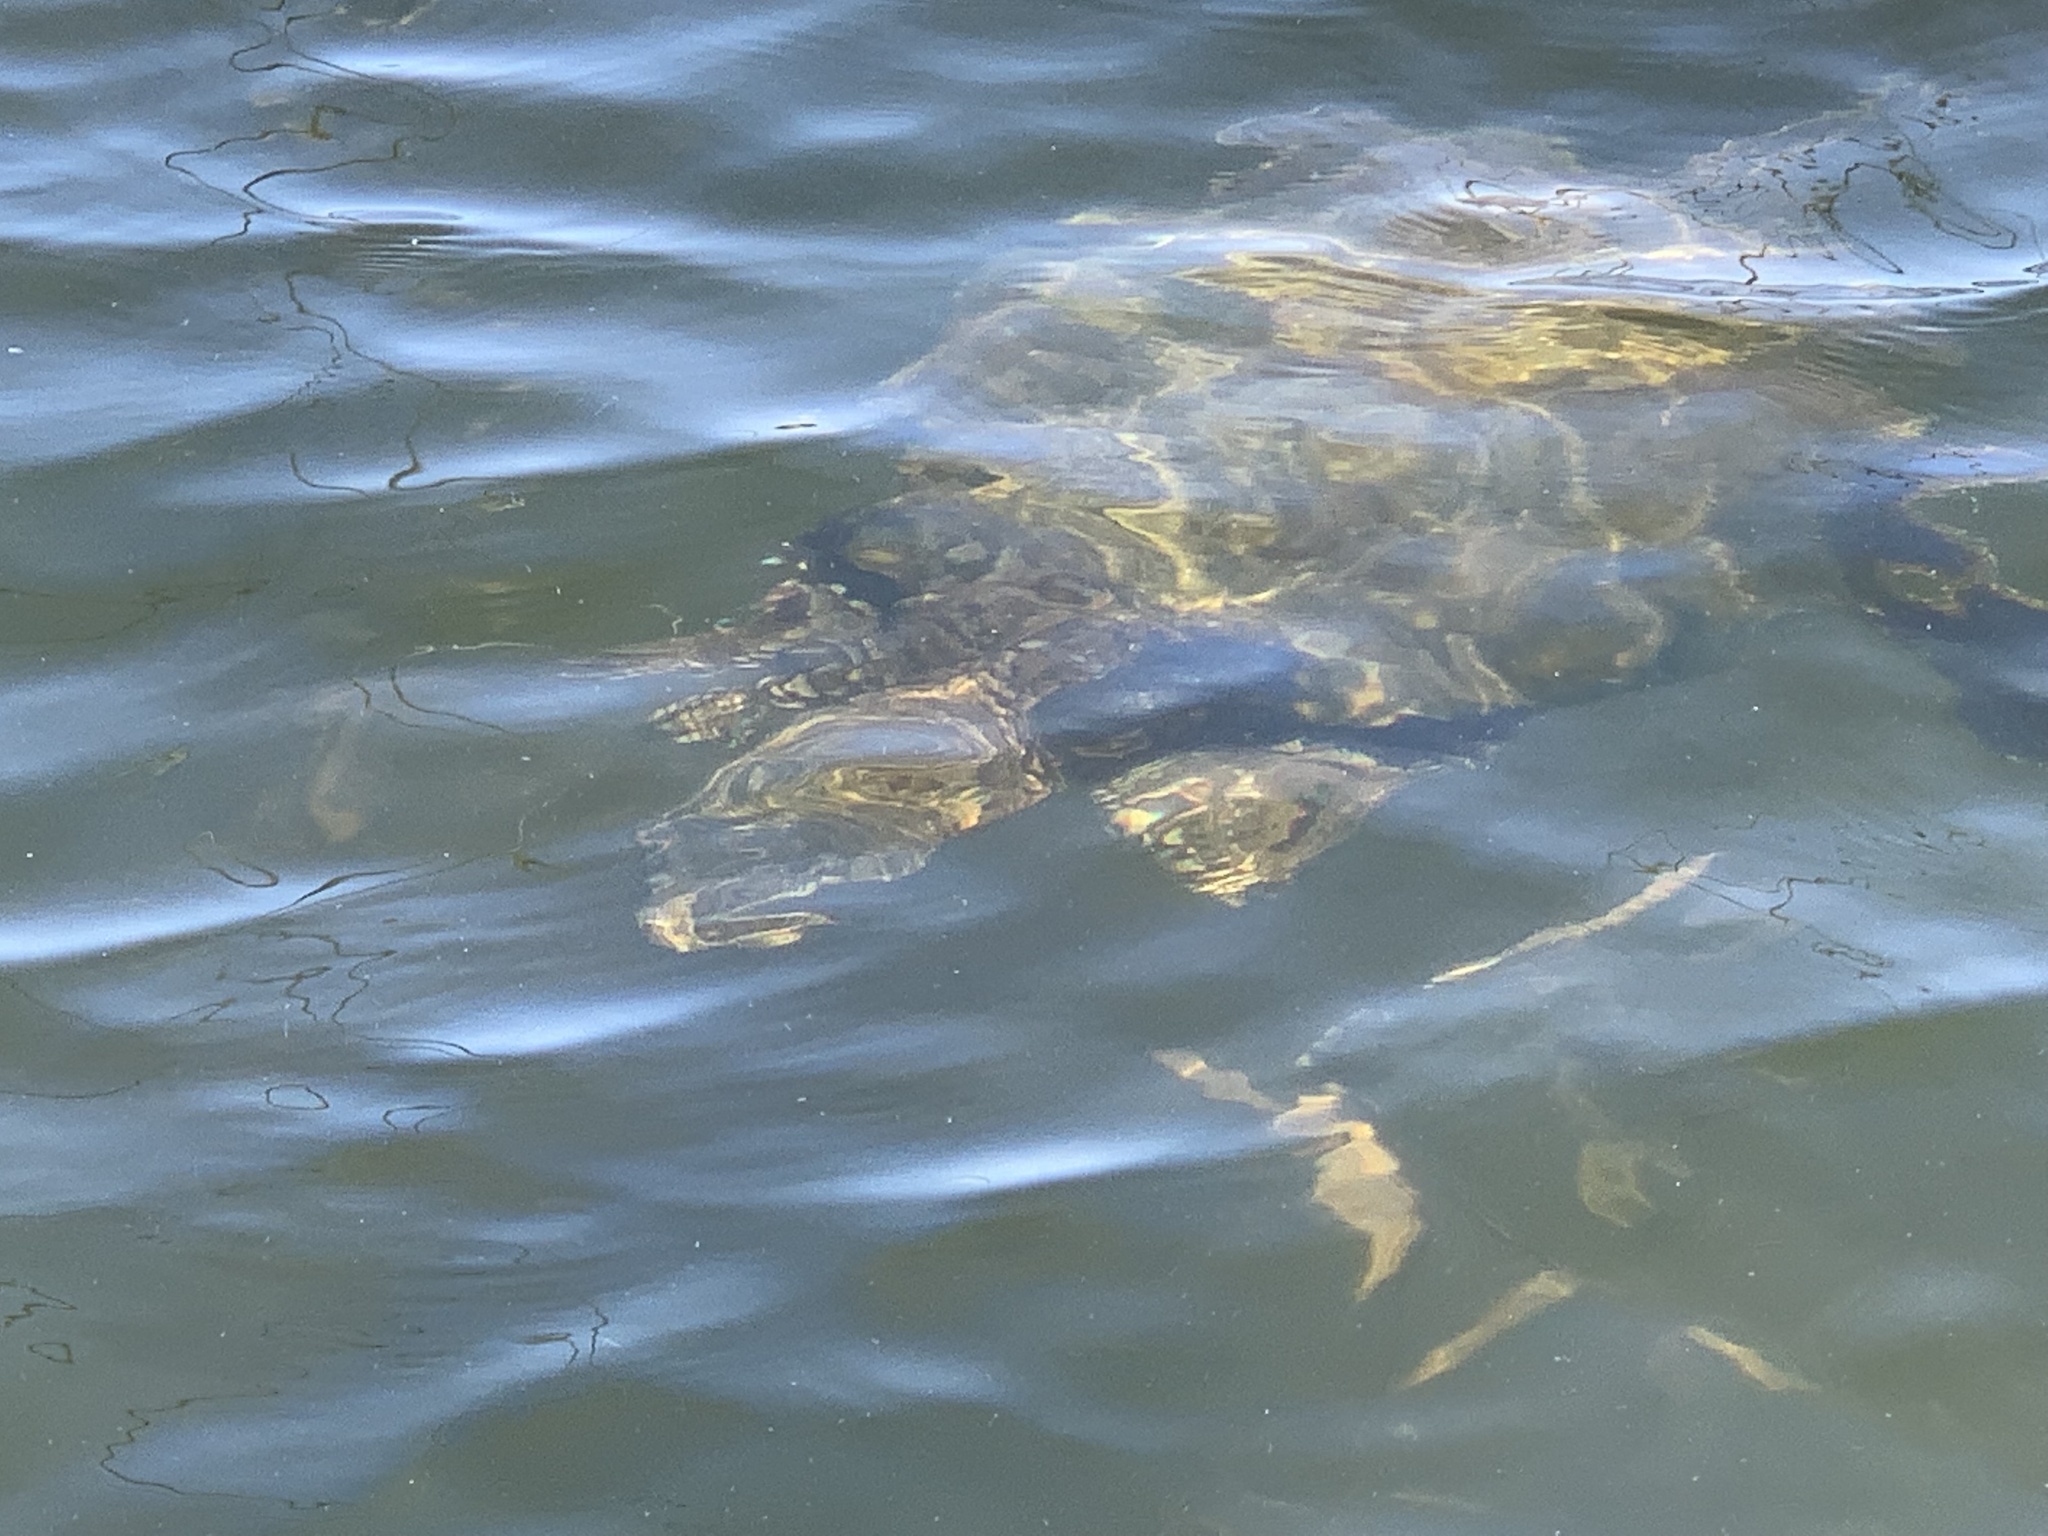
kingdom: Animalia
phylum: Chordata
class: Testudines
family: Chelydridae
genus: Chelydra
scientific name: Chelydra serpentina
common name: Common snapping turtle
